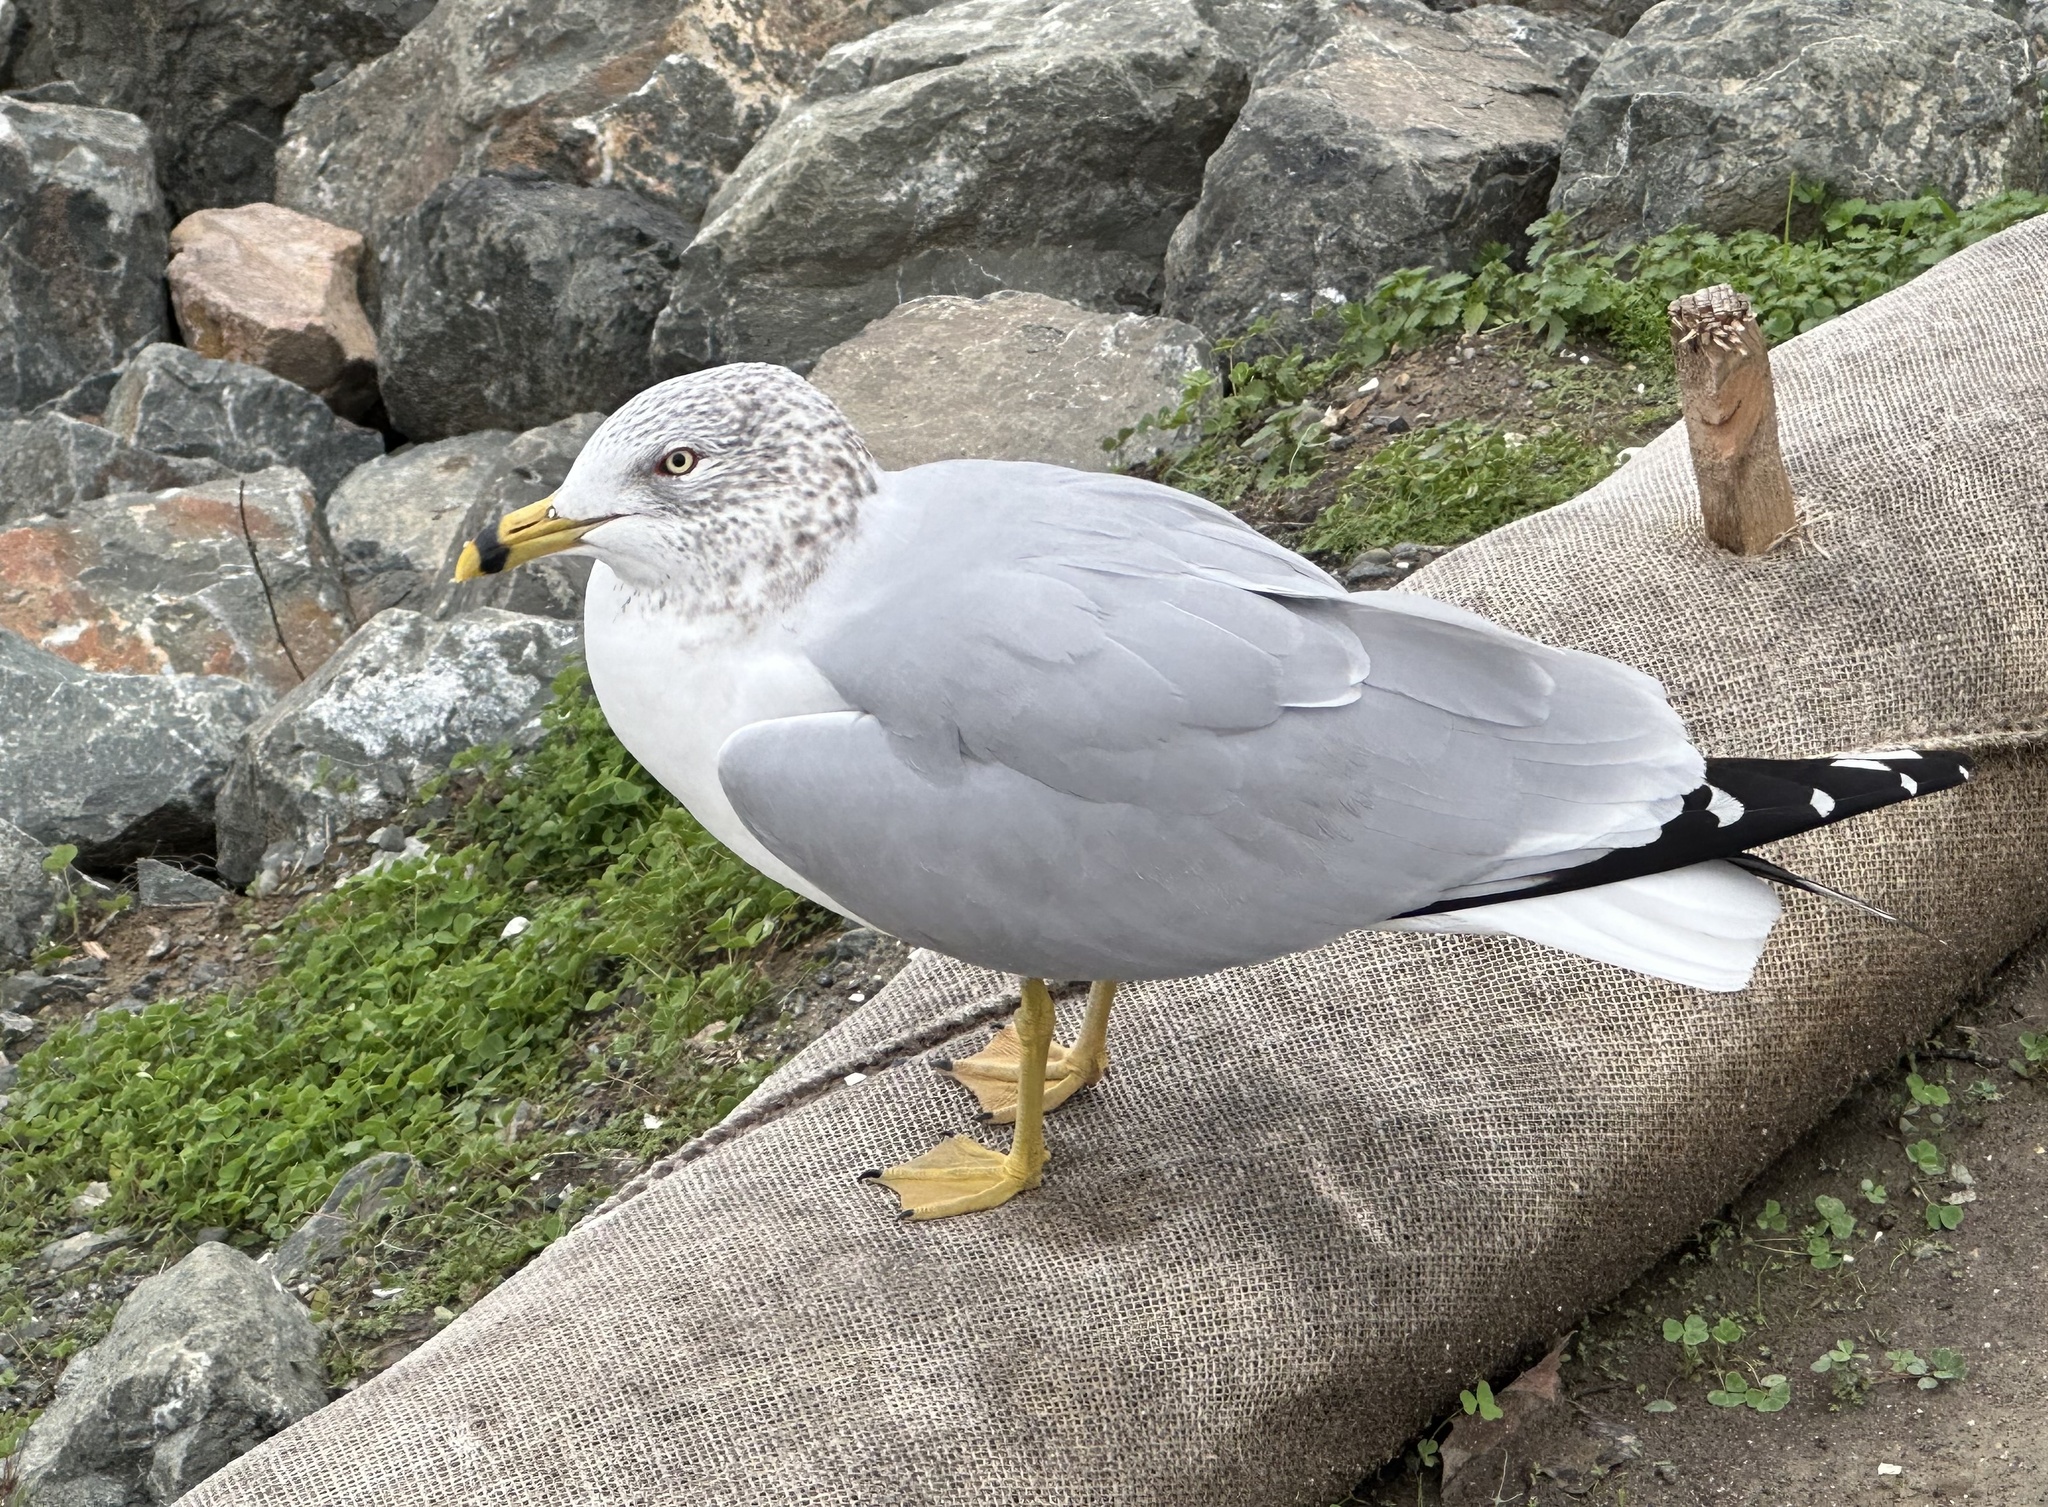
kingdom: Animalia
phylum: Chordata
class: Aves
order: Charadriiformes
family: Laridae
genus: Larus
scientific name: Larus delawarensis
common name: Ring-billed gull
